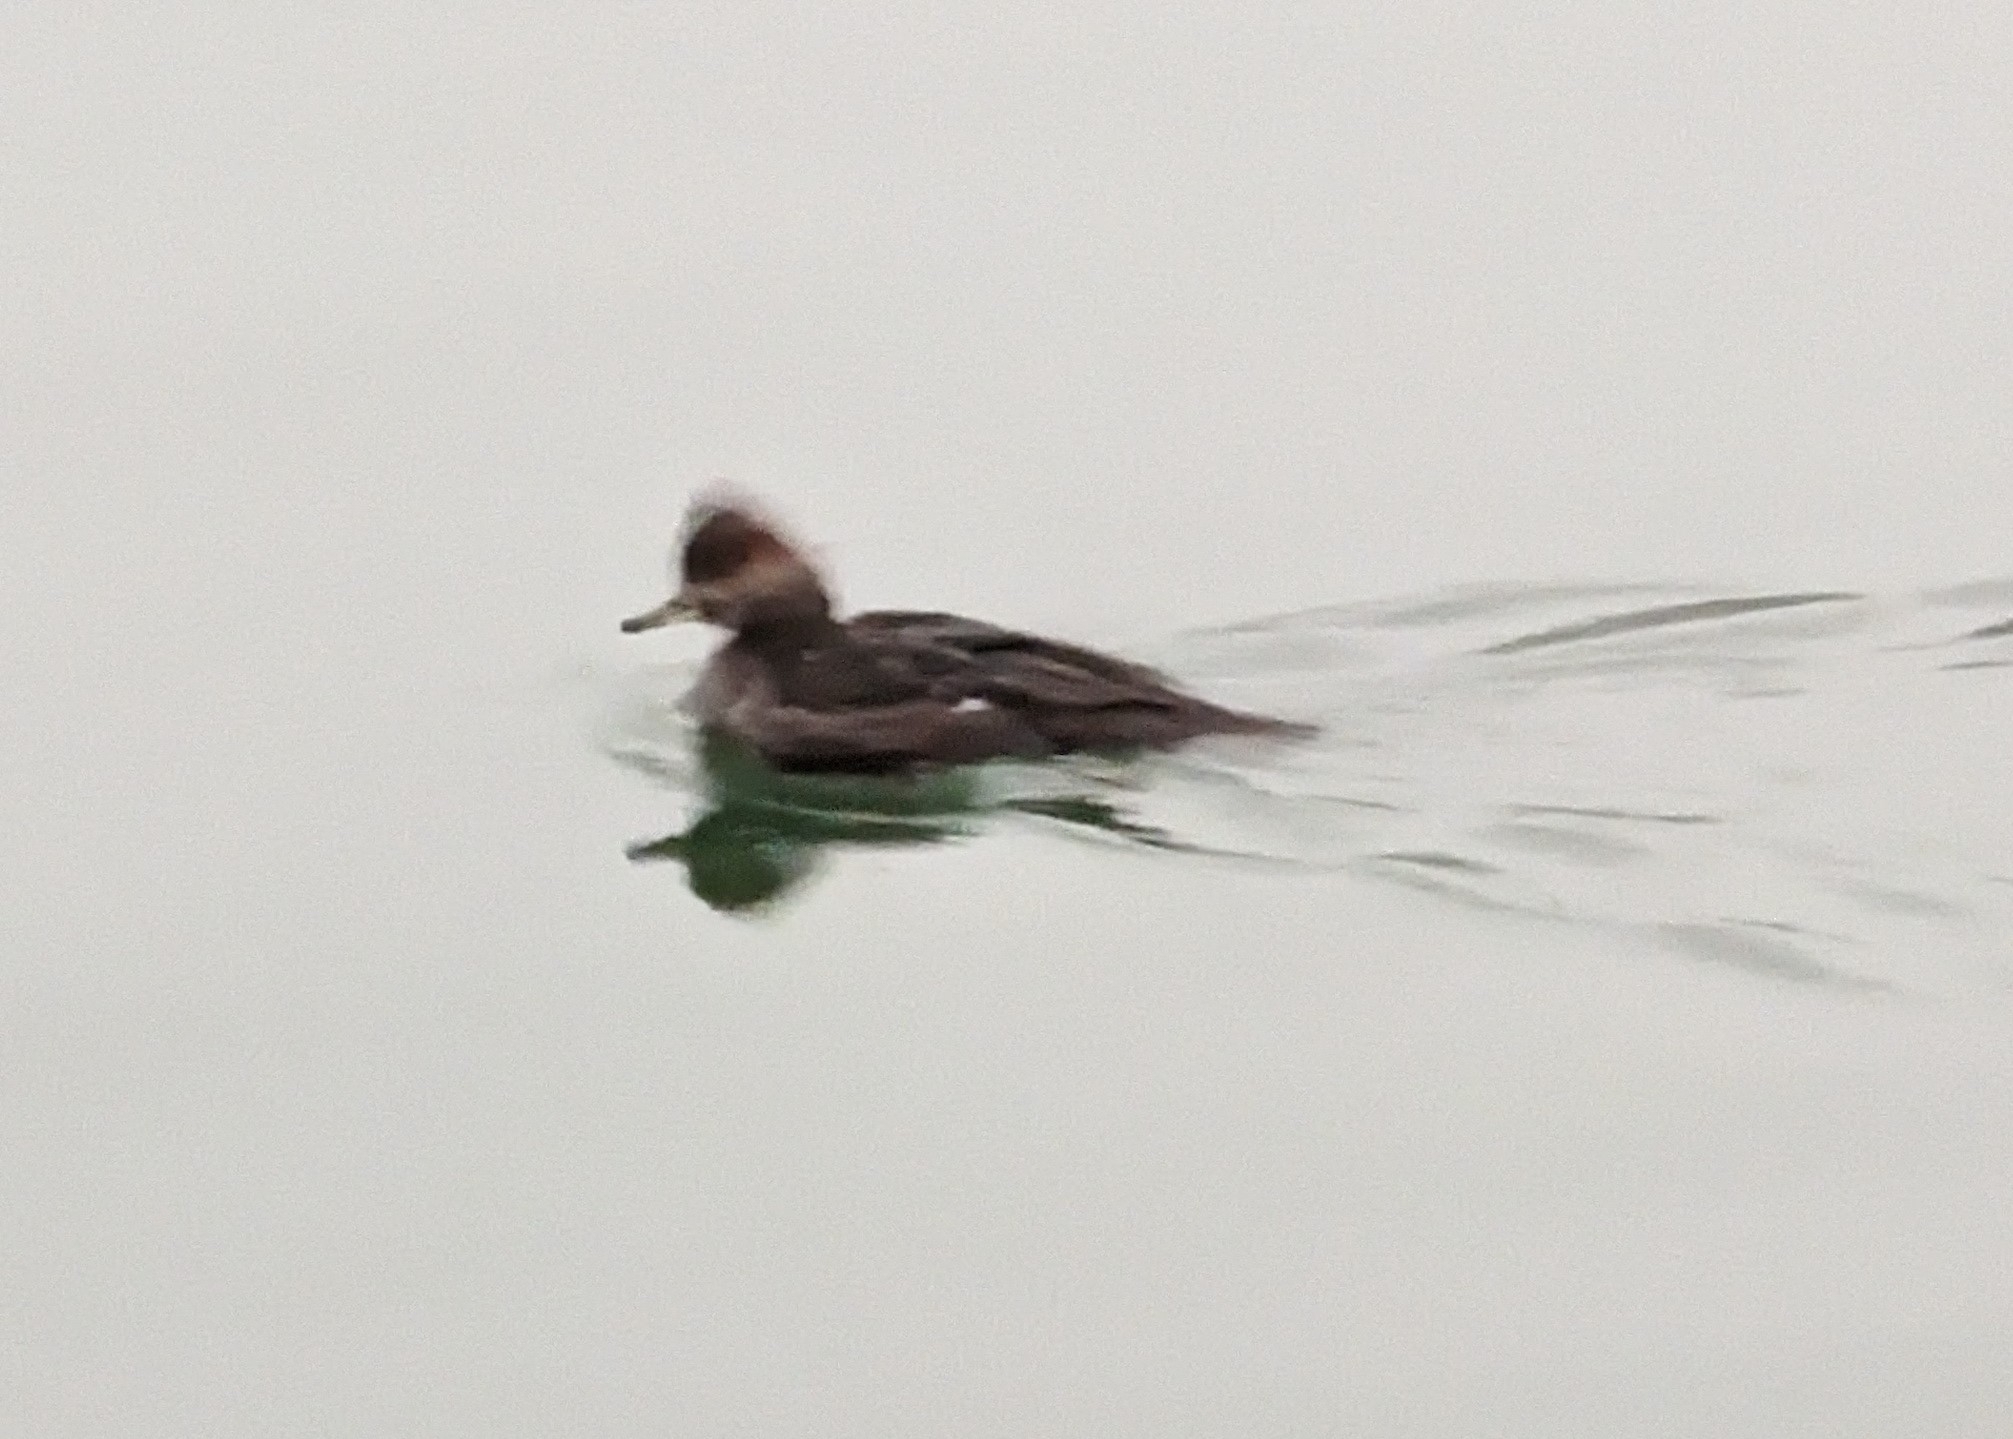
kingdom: Animalia
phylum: Chordata
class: Aves
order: Anseriformes
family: Anatidae
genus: Lophodytes
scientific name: Lophodytes cucullatus
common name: Hooded merganser
